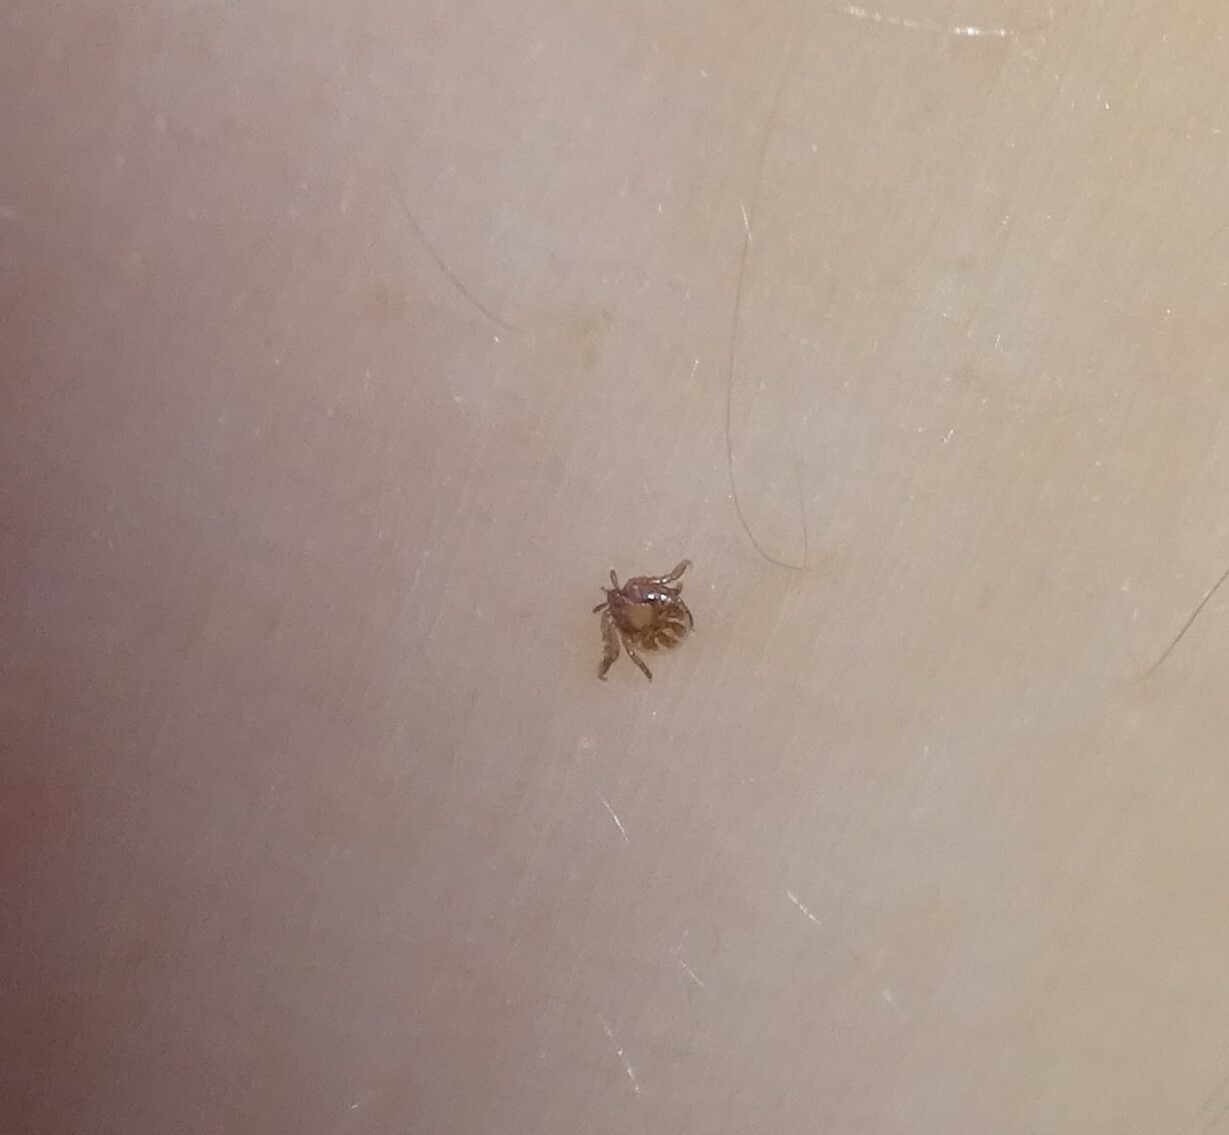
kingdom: Animalia
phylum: Arthropoda
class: Arachnida
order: Ixodida
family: Ixodidae
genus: Ixodes
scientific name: Ixodes
